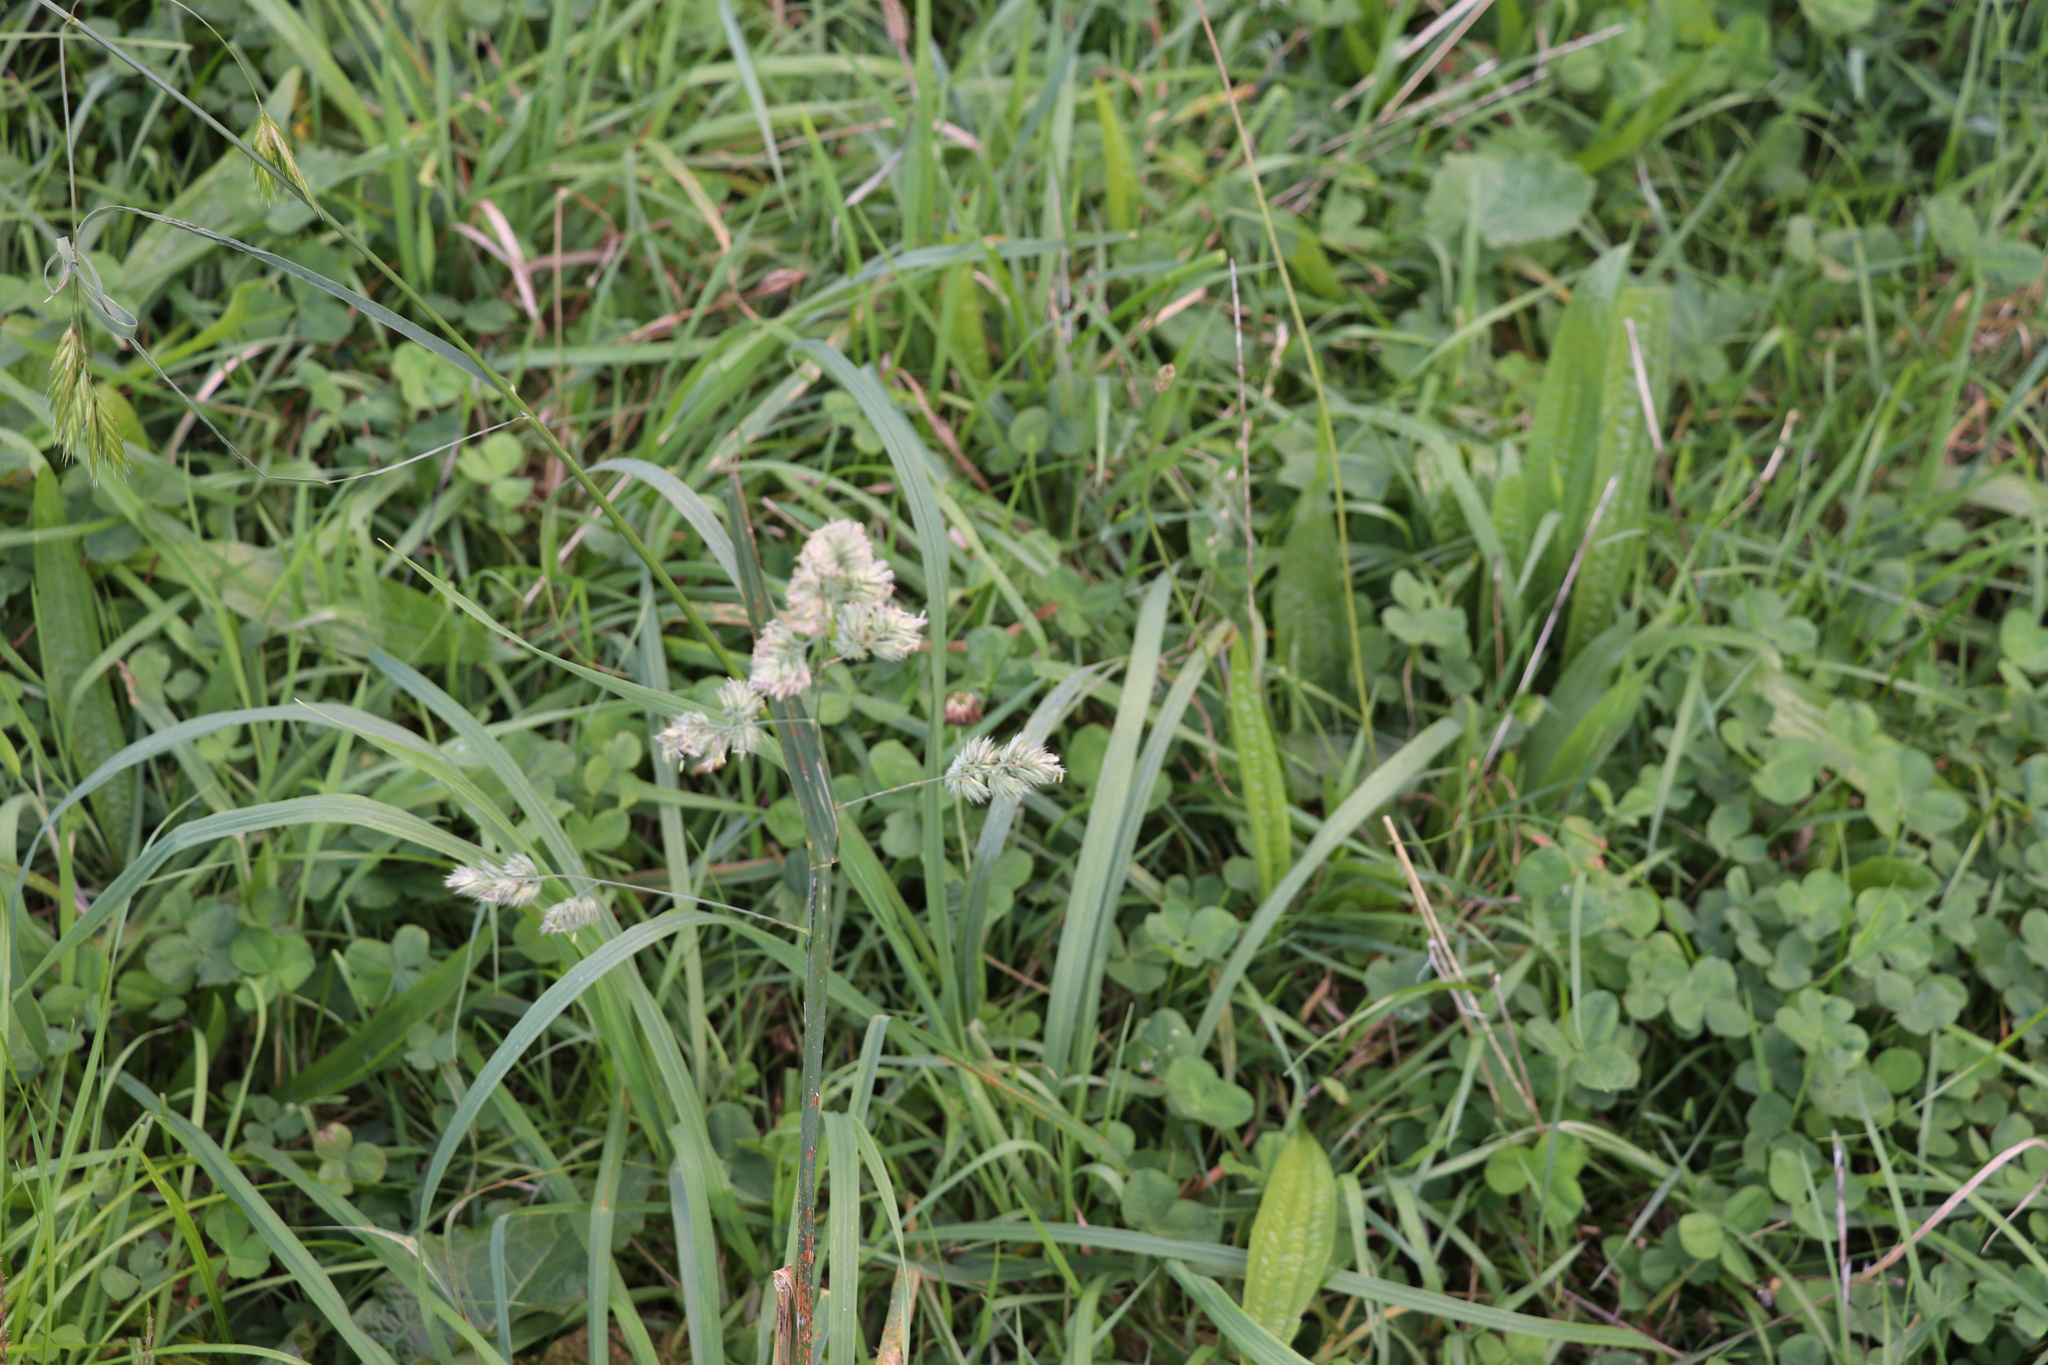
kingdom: Plantae
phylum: Tracheophyta
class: Liliopsida
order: Poales
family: Poaceae
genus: Dactylis
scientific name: Dactylis glomerata
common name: Orchardgrass
